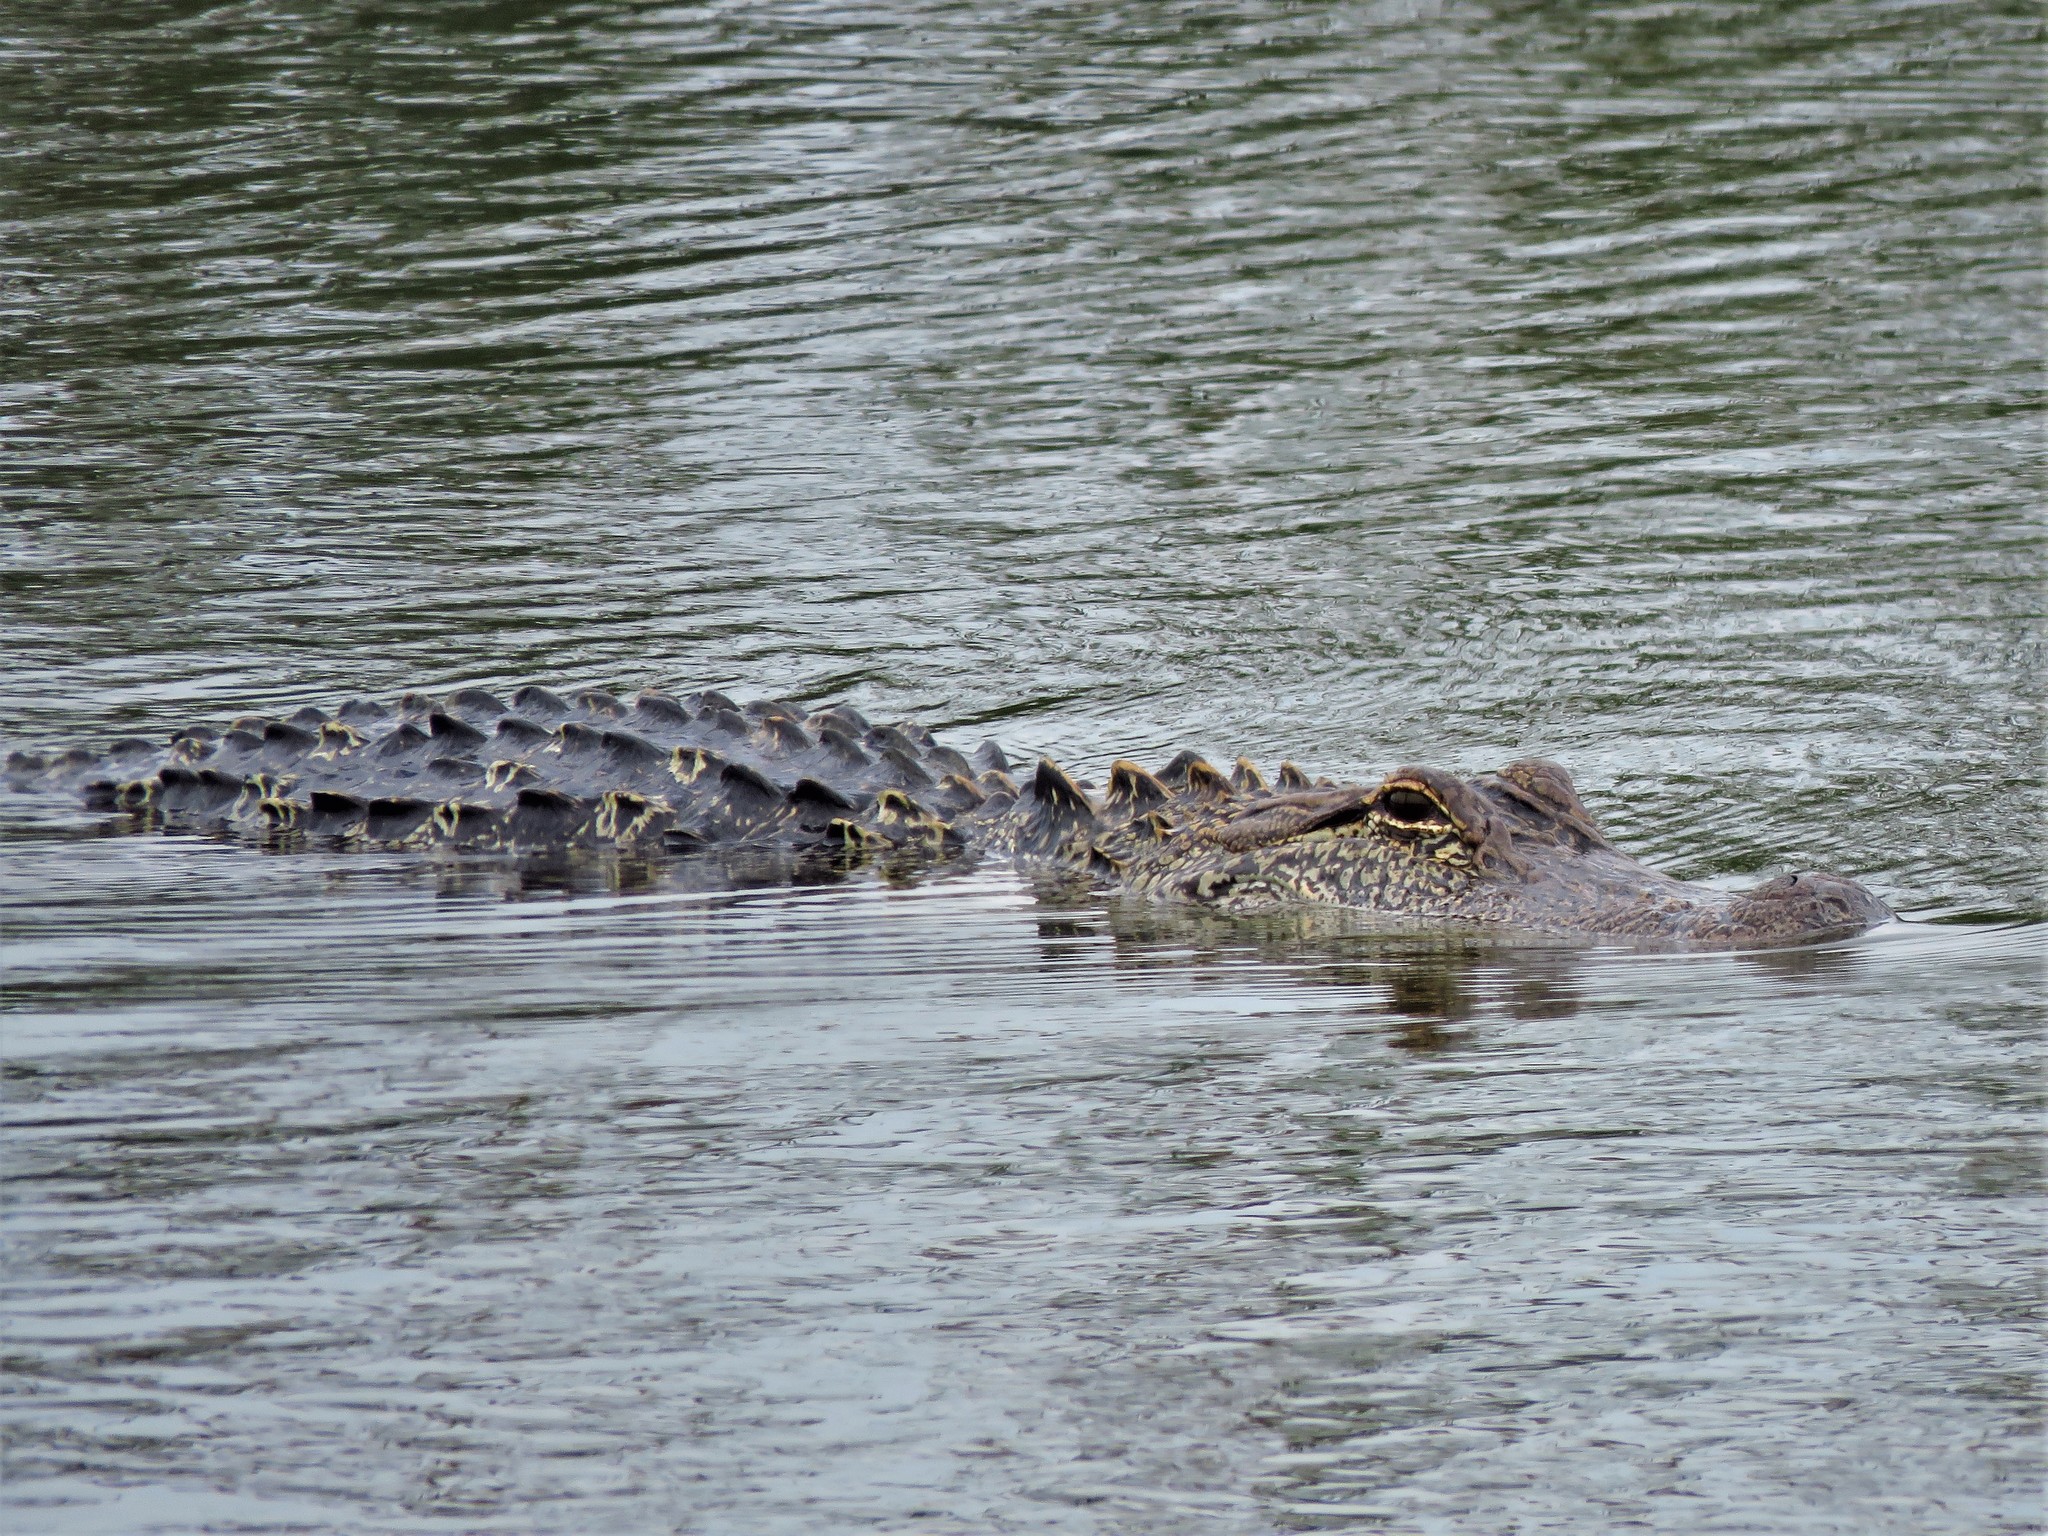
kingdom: Animalia
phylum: Chordata
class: Crocodylia
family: Alligatoridae
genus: Alligator
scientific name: Alligator mississippiensis
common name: American alligator
